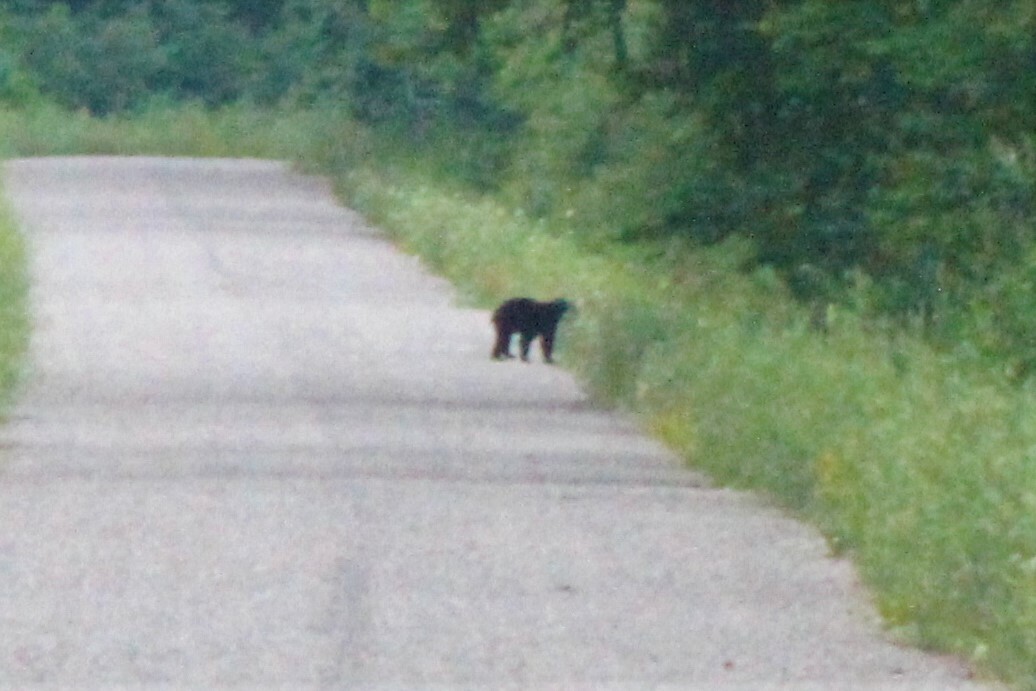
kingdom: Animalia
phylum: Chordata
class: Mammalia
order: Carnivora
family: Ursidae
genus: Ursus
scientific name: Ursus americanus
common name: American black bear
